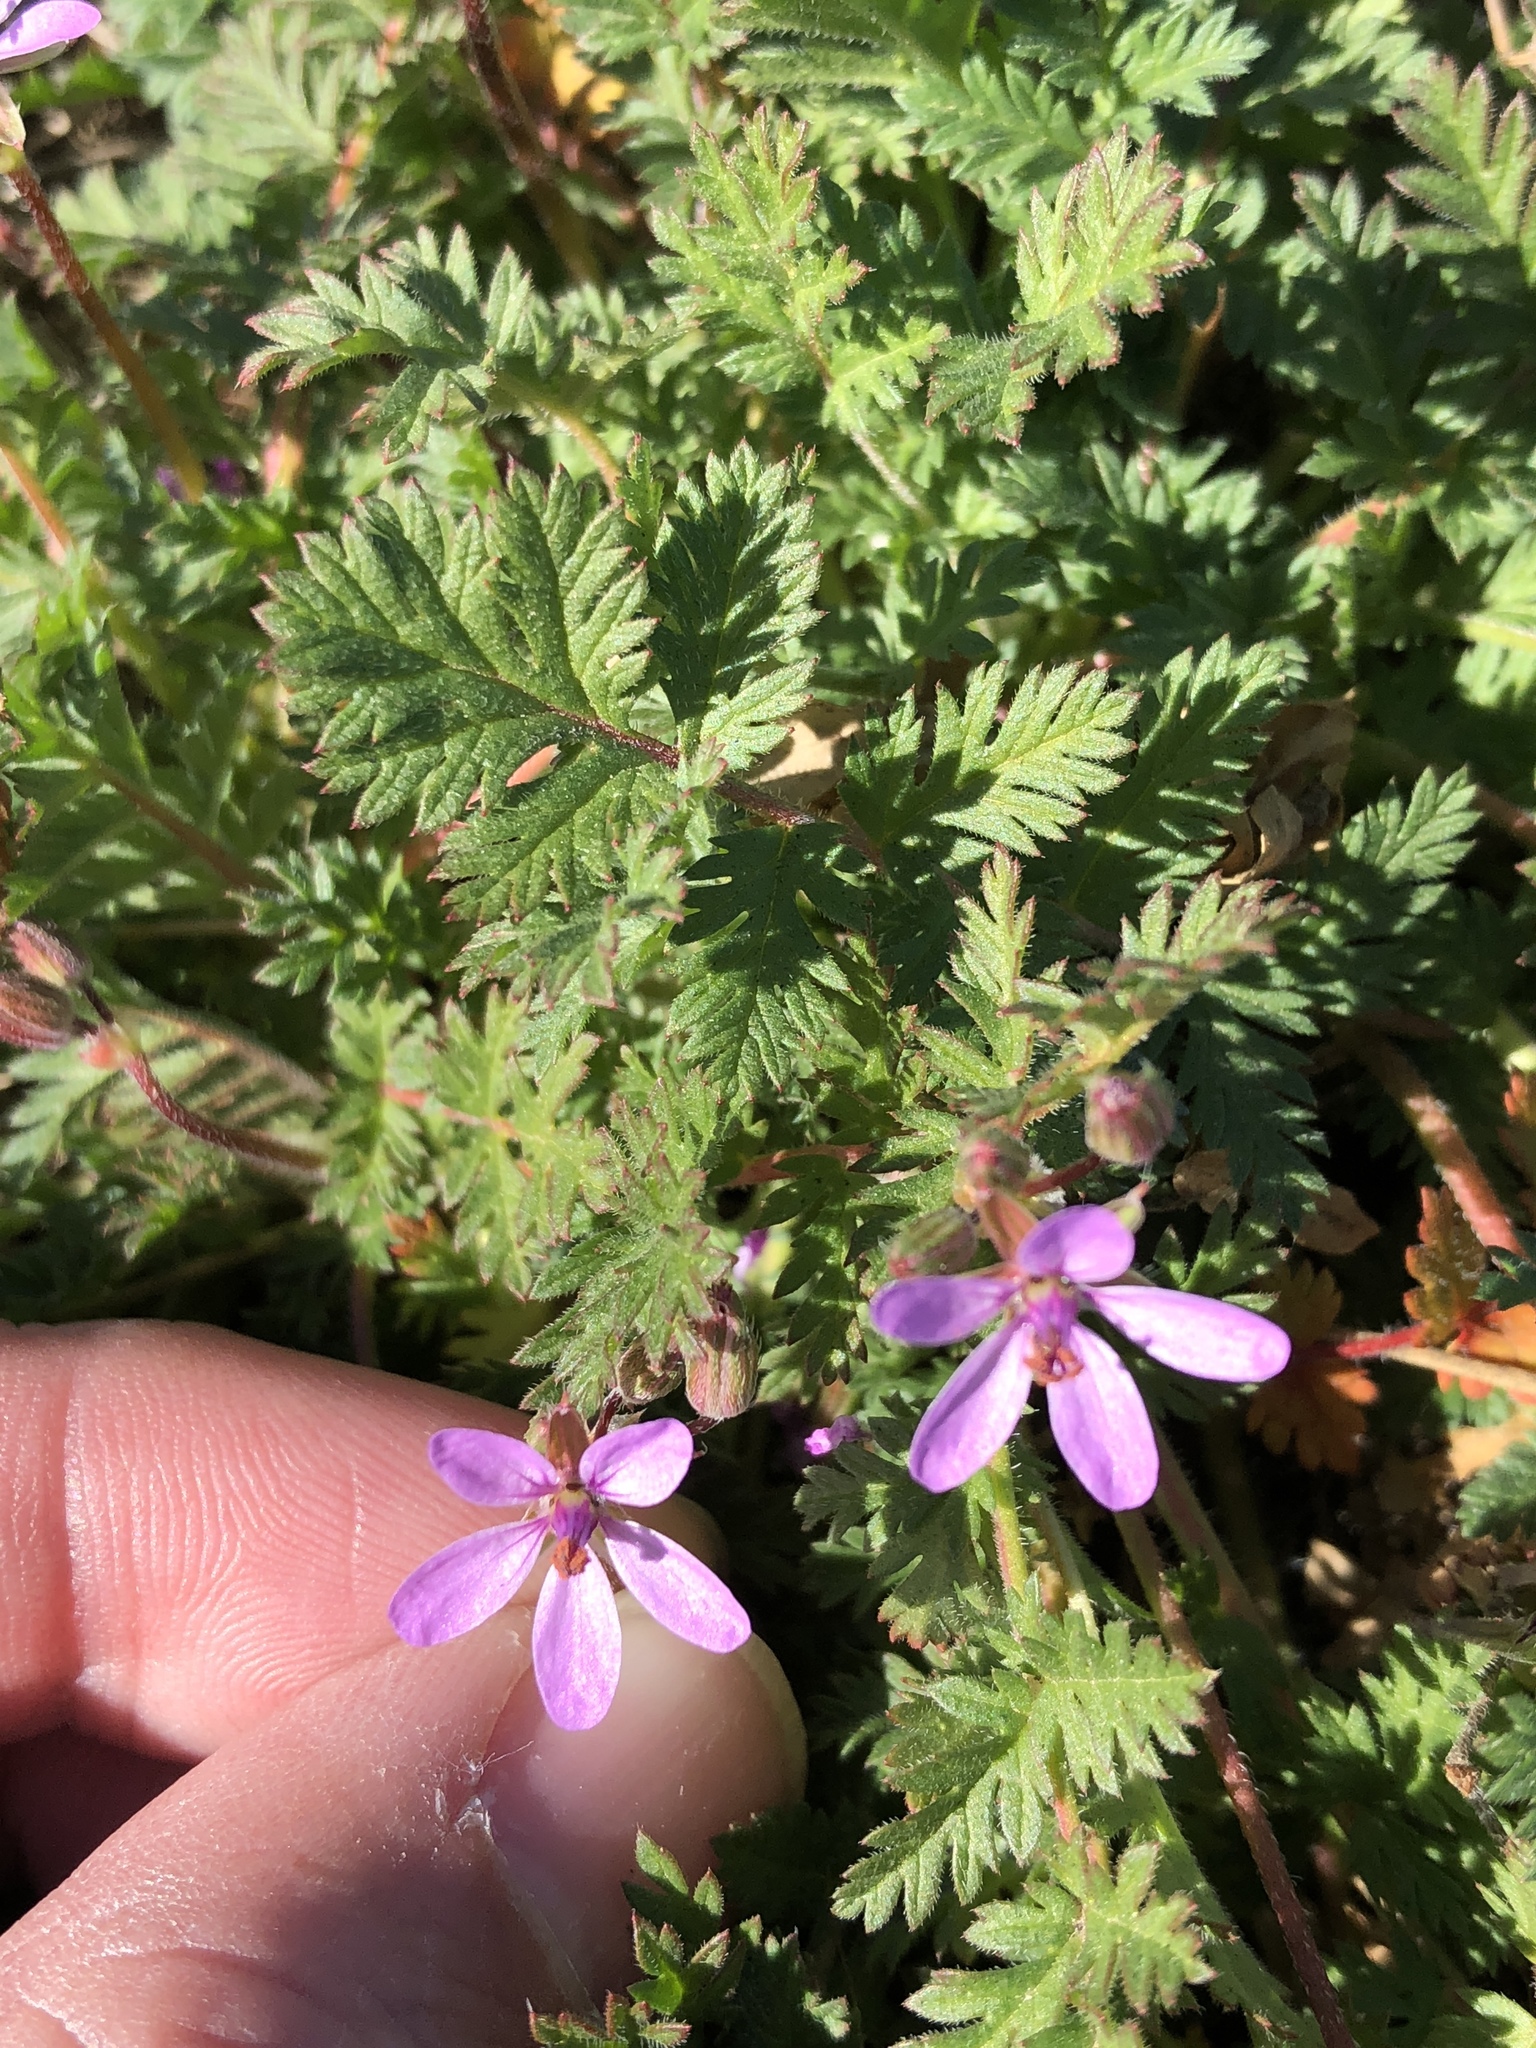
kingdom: Plantae
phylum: Tracheophyta
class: Magnoliopsida
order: Geraniales
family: Geraniaceae
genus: Erodium
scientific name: Erodium cicutarium
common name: Common stork's-bill
